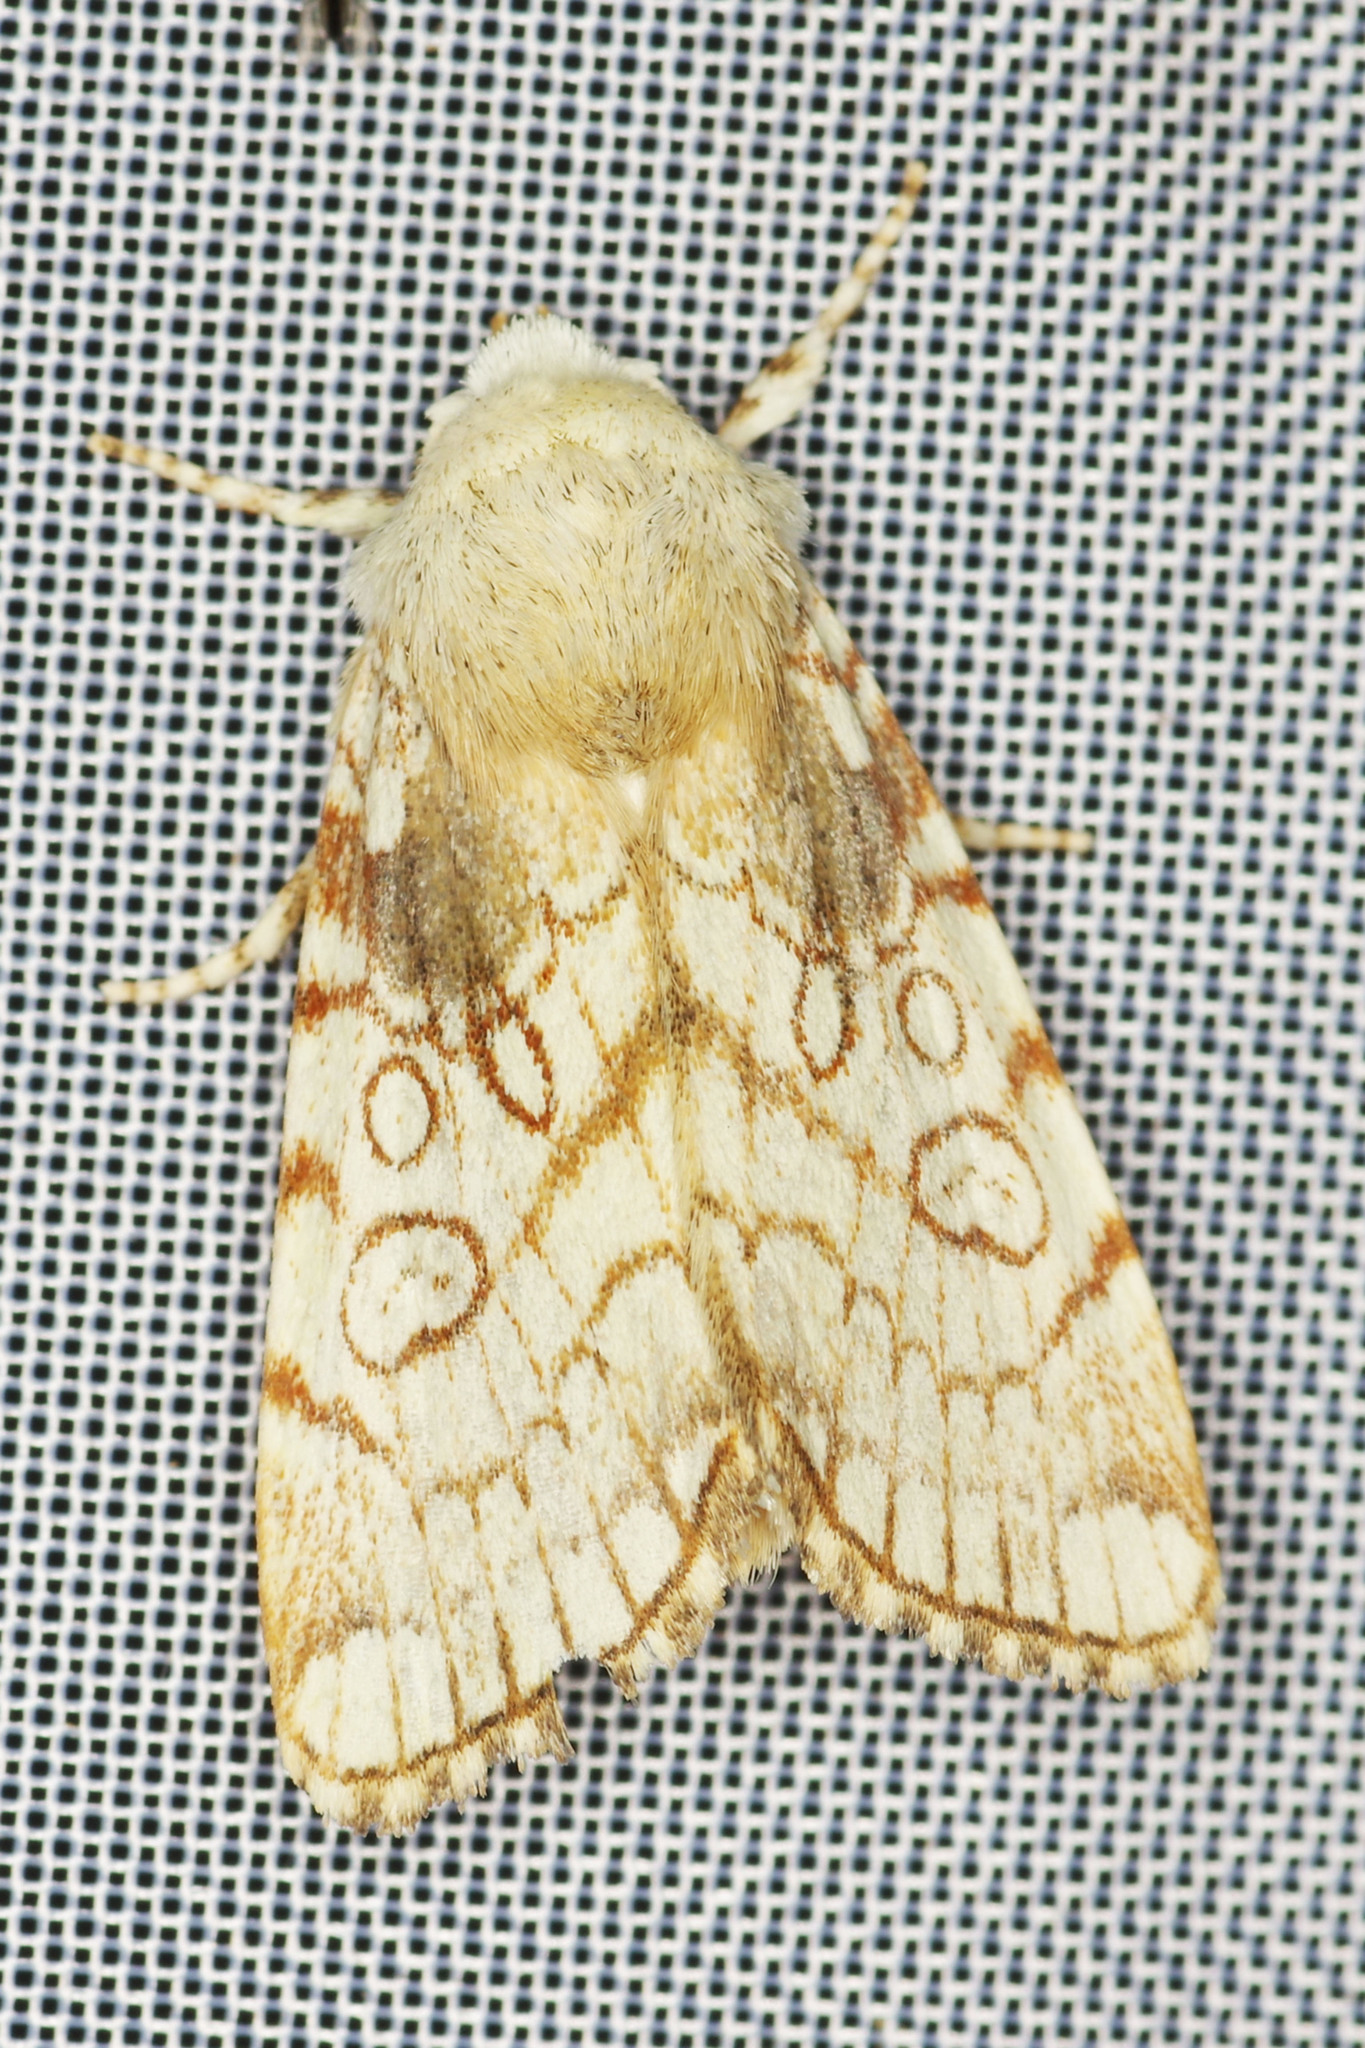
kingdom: Animalia
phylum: Arthropoda
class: Insecta
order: Lepidoptera
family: Noctuidae
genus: Dicycla
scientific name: Dicycla oo
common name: Heart moth
